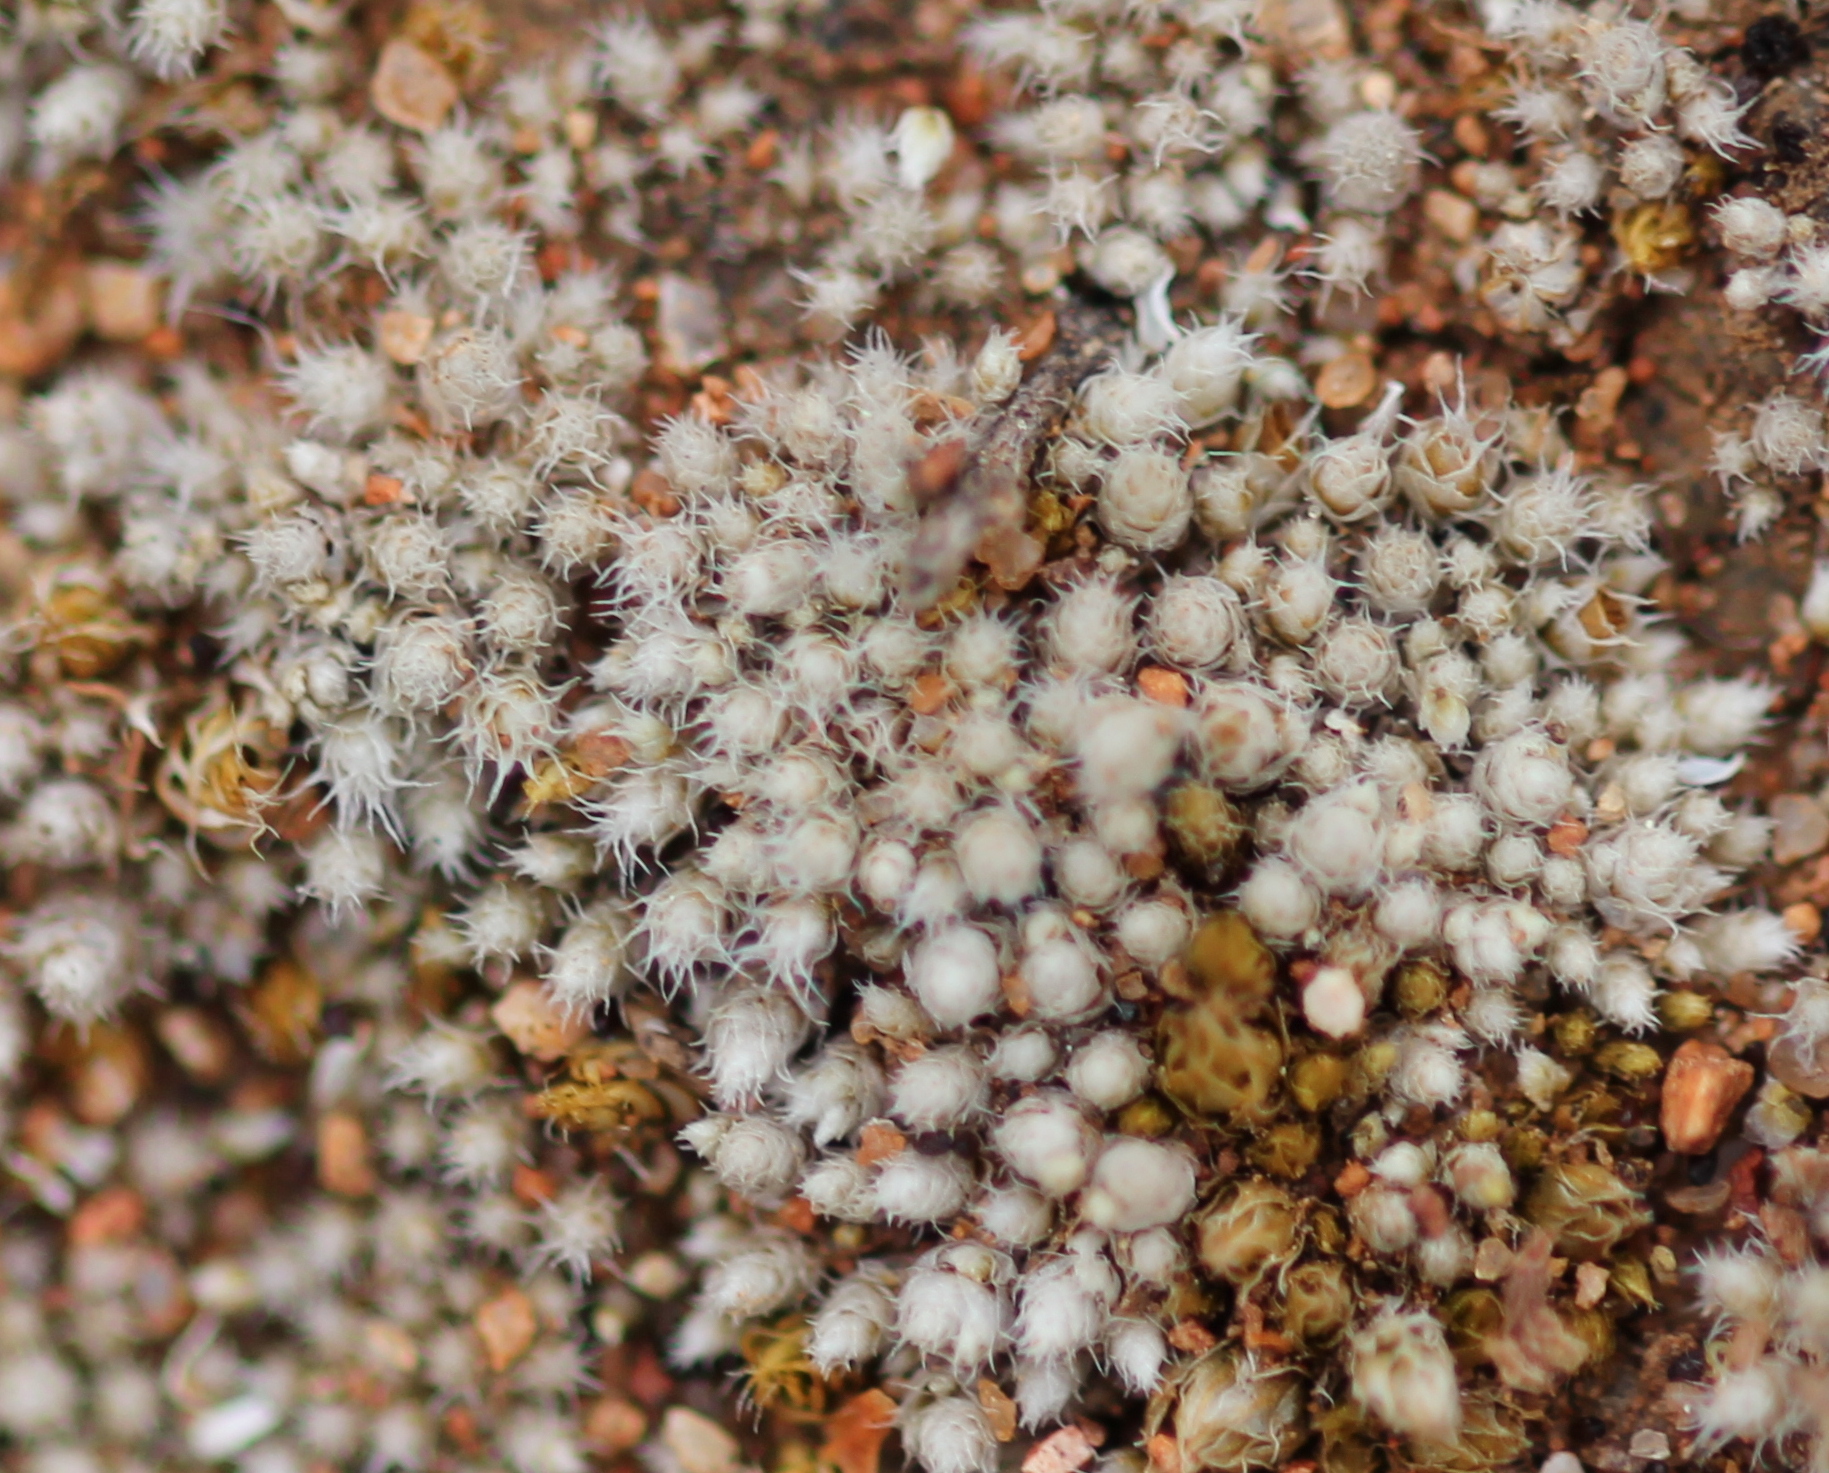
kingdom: Plantae
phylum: Bryophyta
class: Bryopsida
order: Bryales
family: Bryaceae
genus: Bryum
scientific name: Bryum argenteum
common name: Silver-moss
